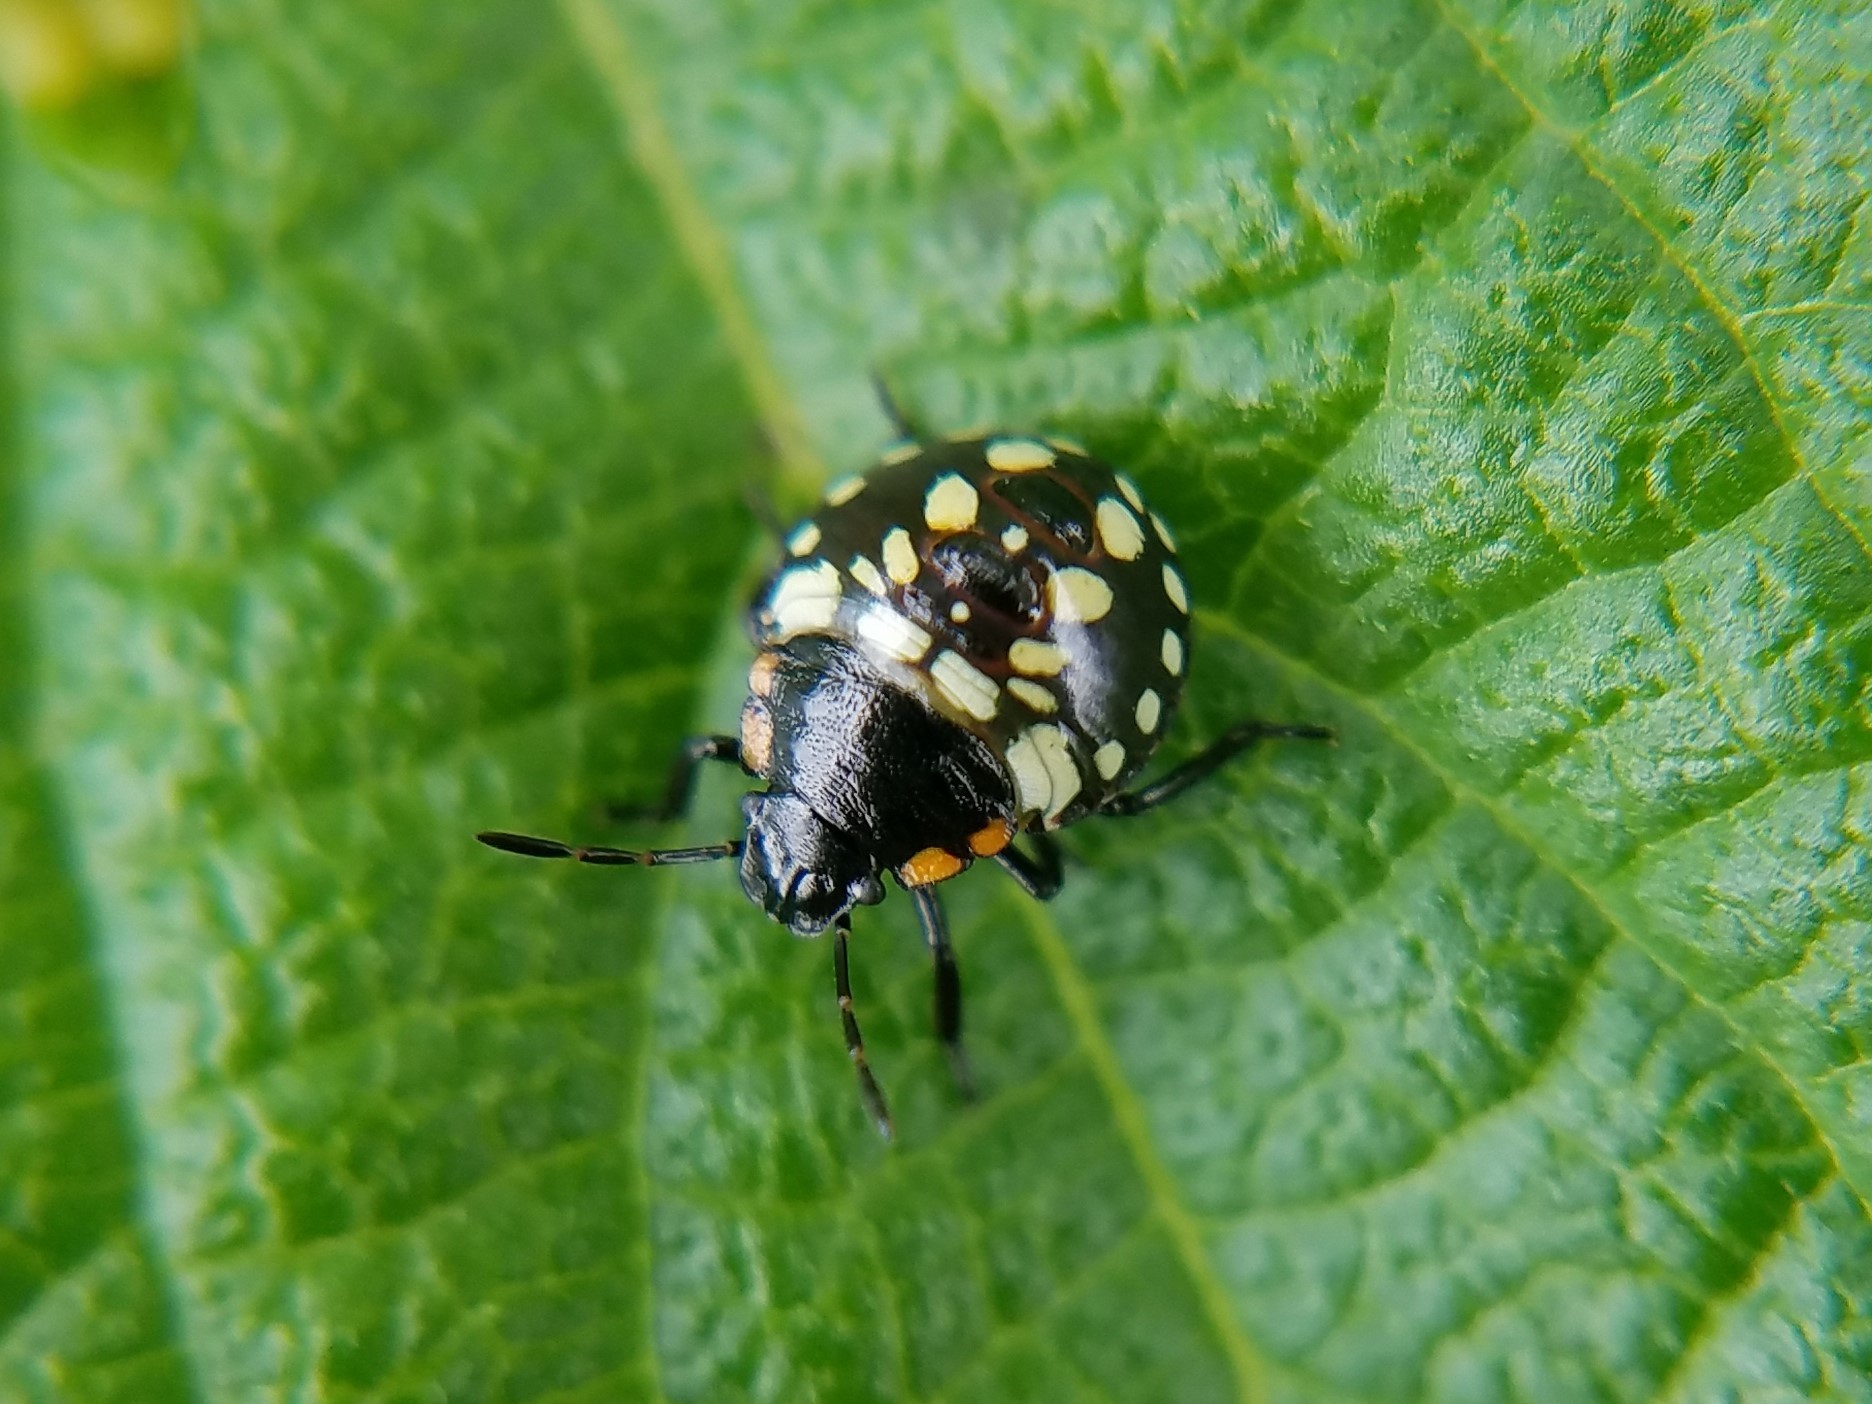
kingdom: Animalia
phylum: Arthropoda
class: Insecta
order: Hemiptera
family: Pentatomidae
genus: Nezara
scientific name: Nezara viridula
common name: Southern green stink bug
